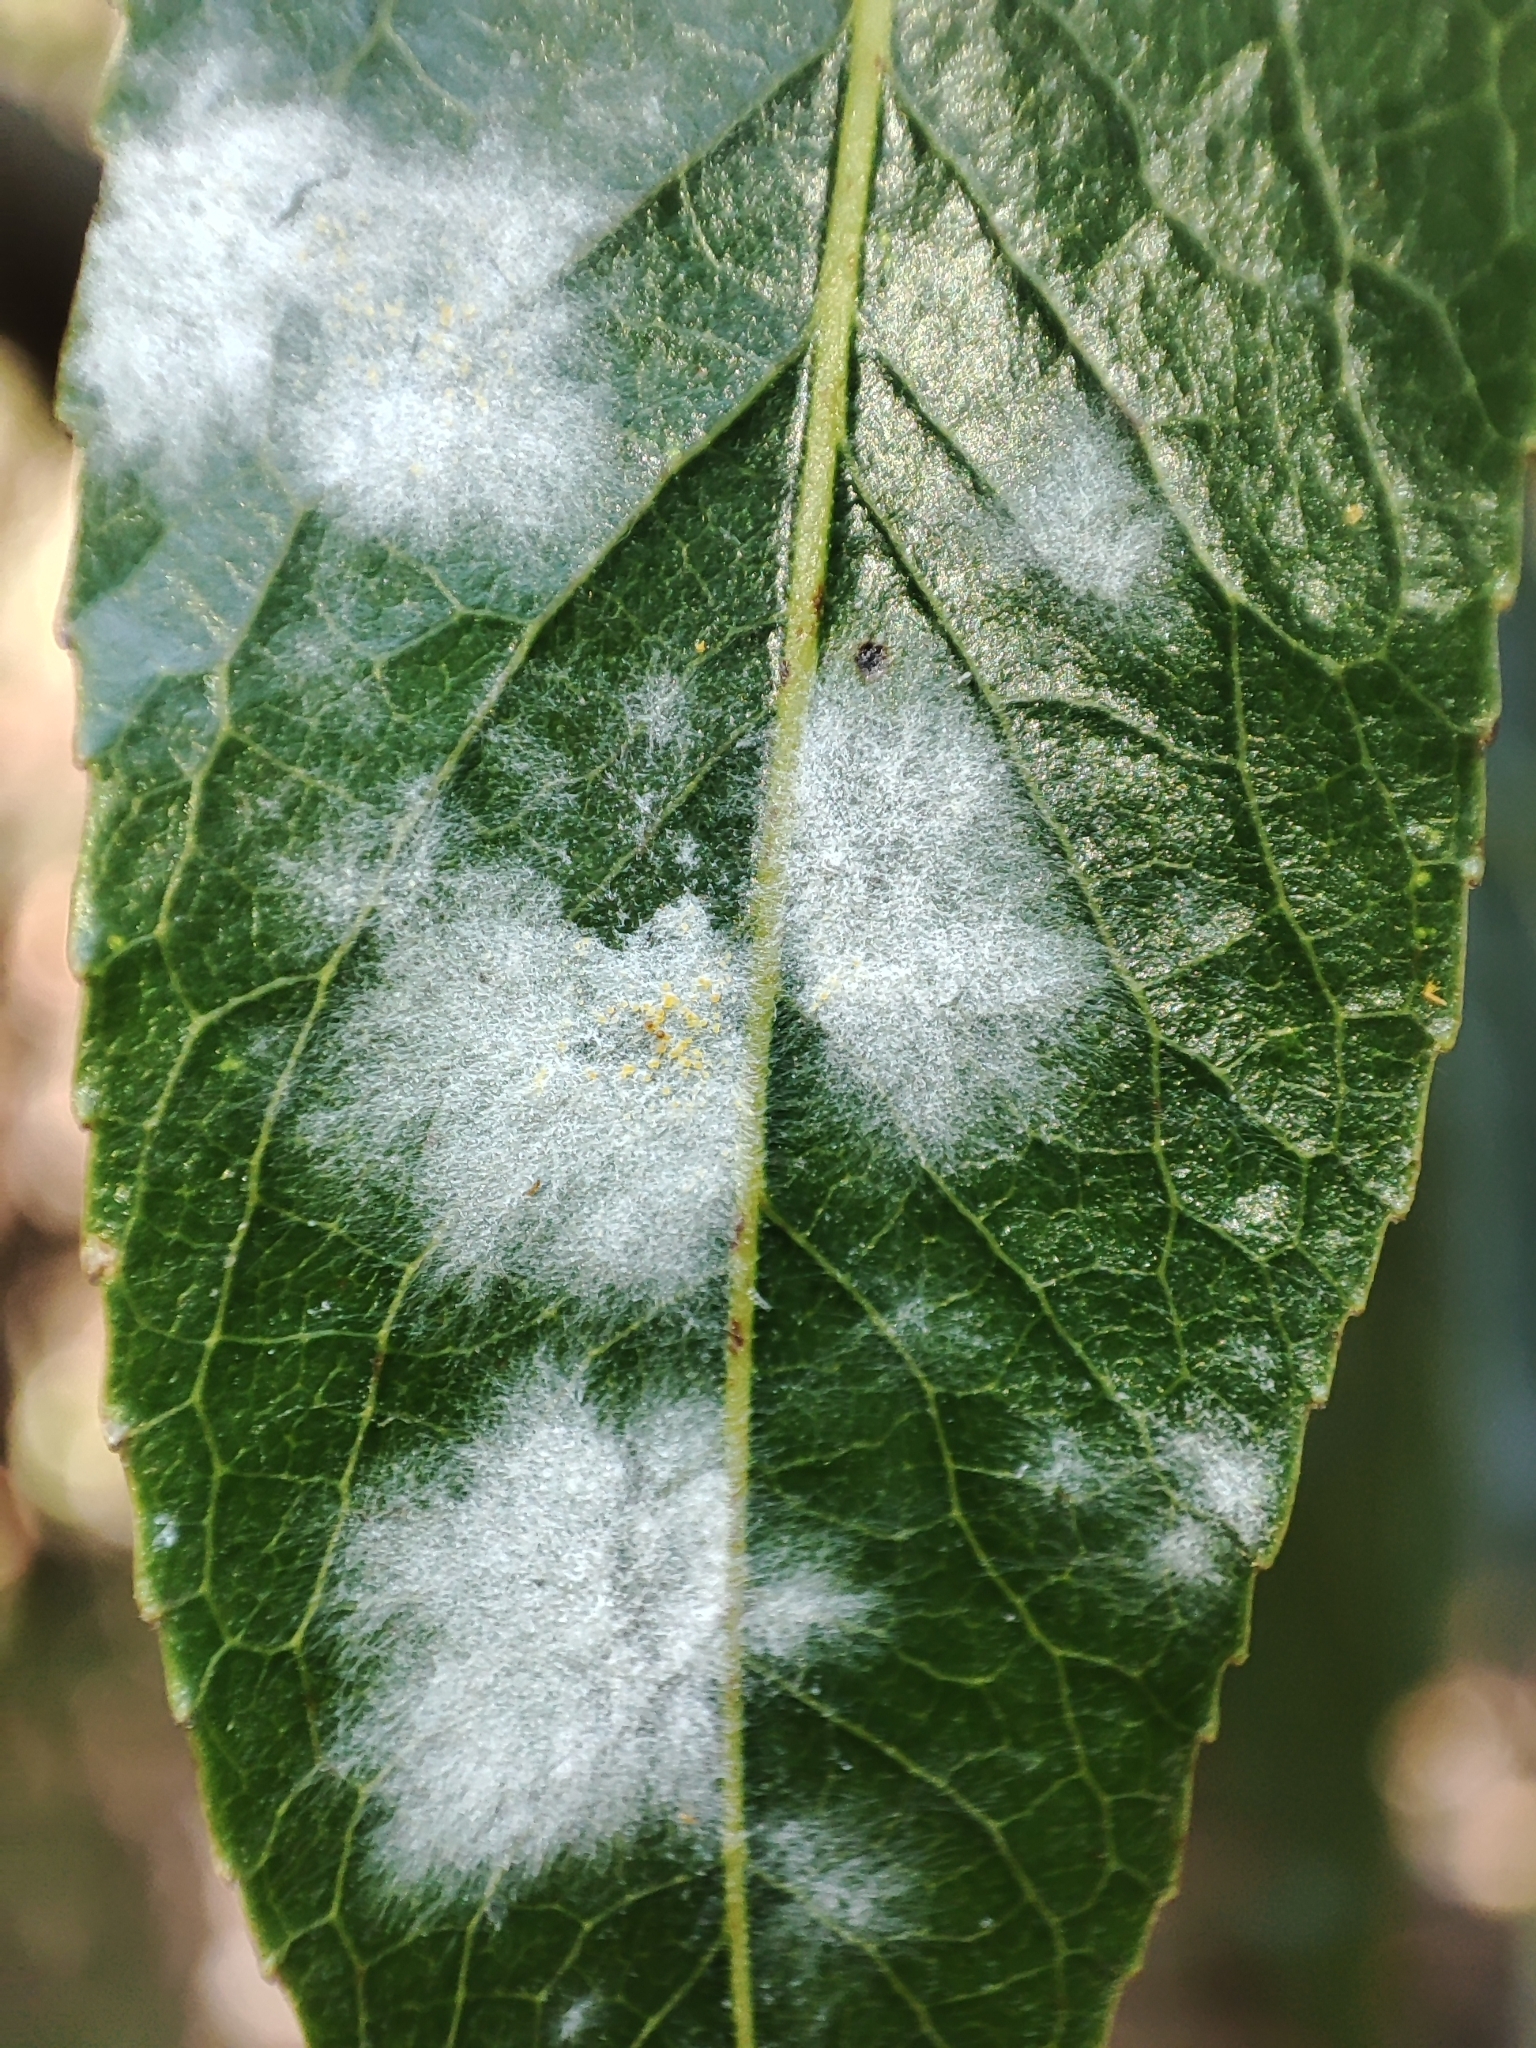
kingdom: Fungi
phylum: Ascomycota
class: Leotiomycetes
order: Helotiales
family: Erysiphaceae
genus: Erysiphe
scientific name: Erysiphe capreae
